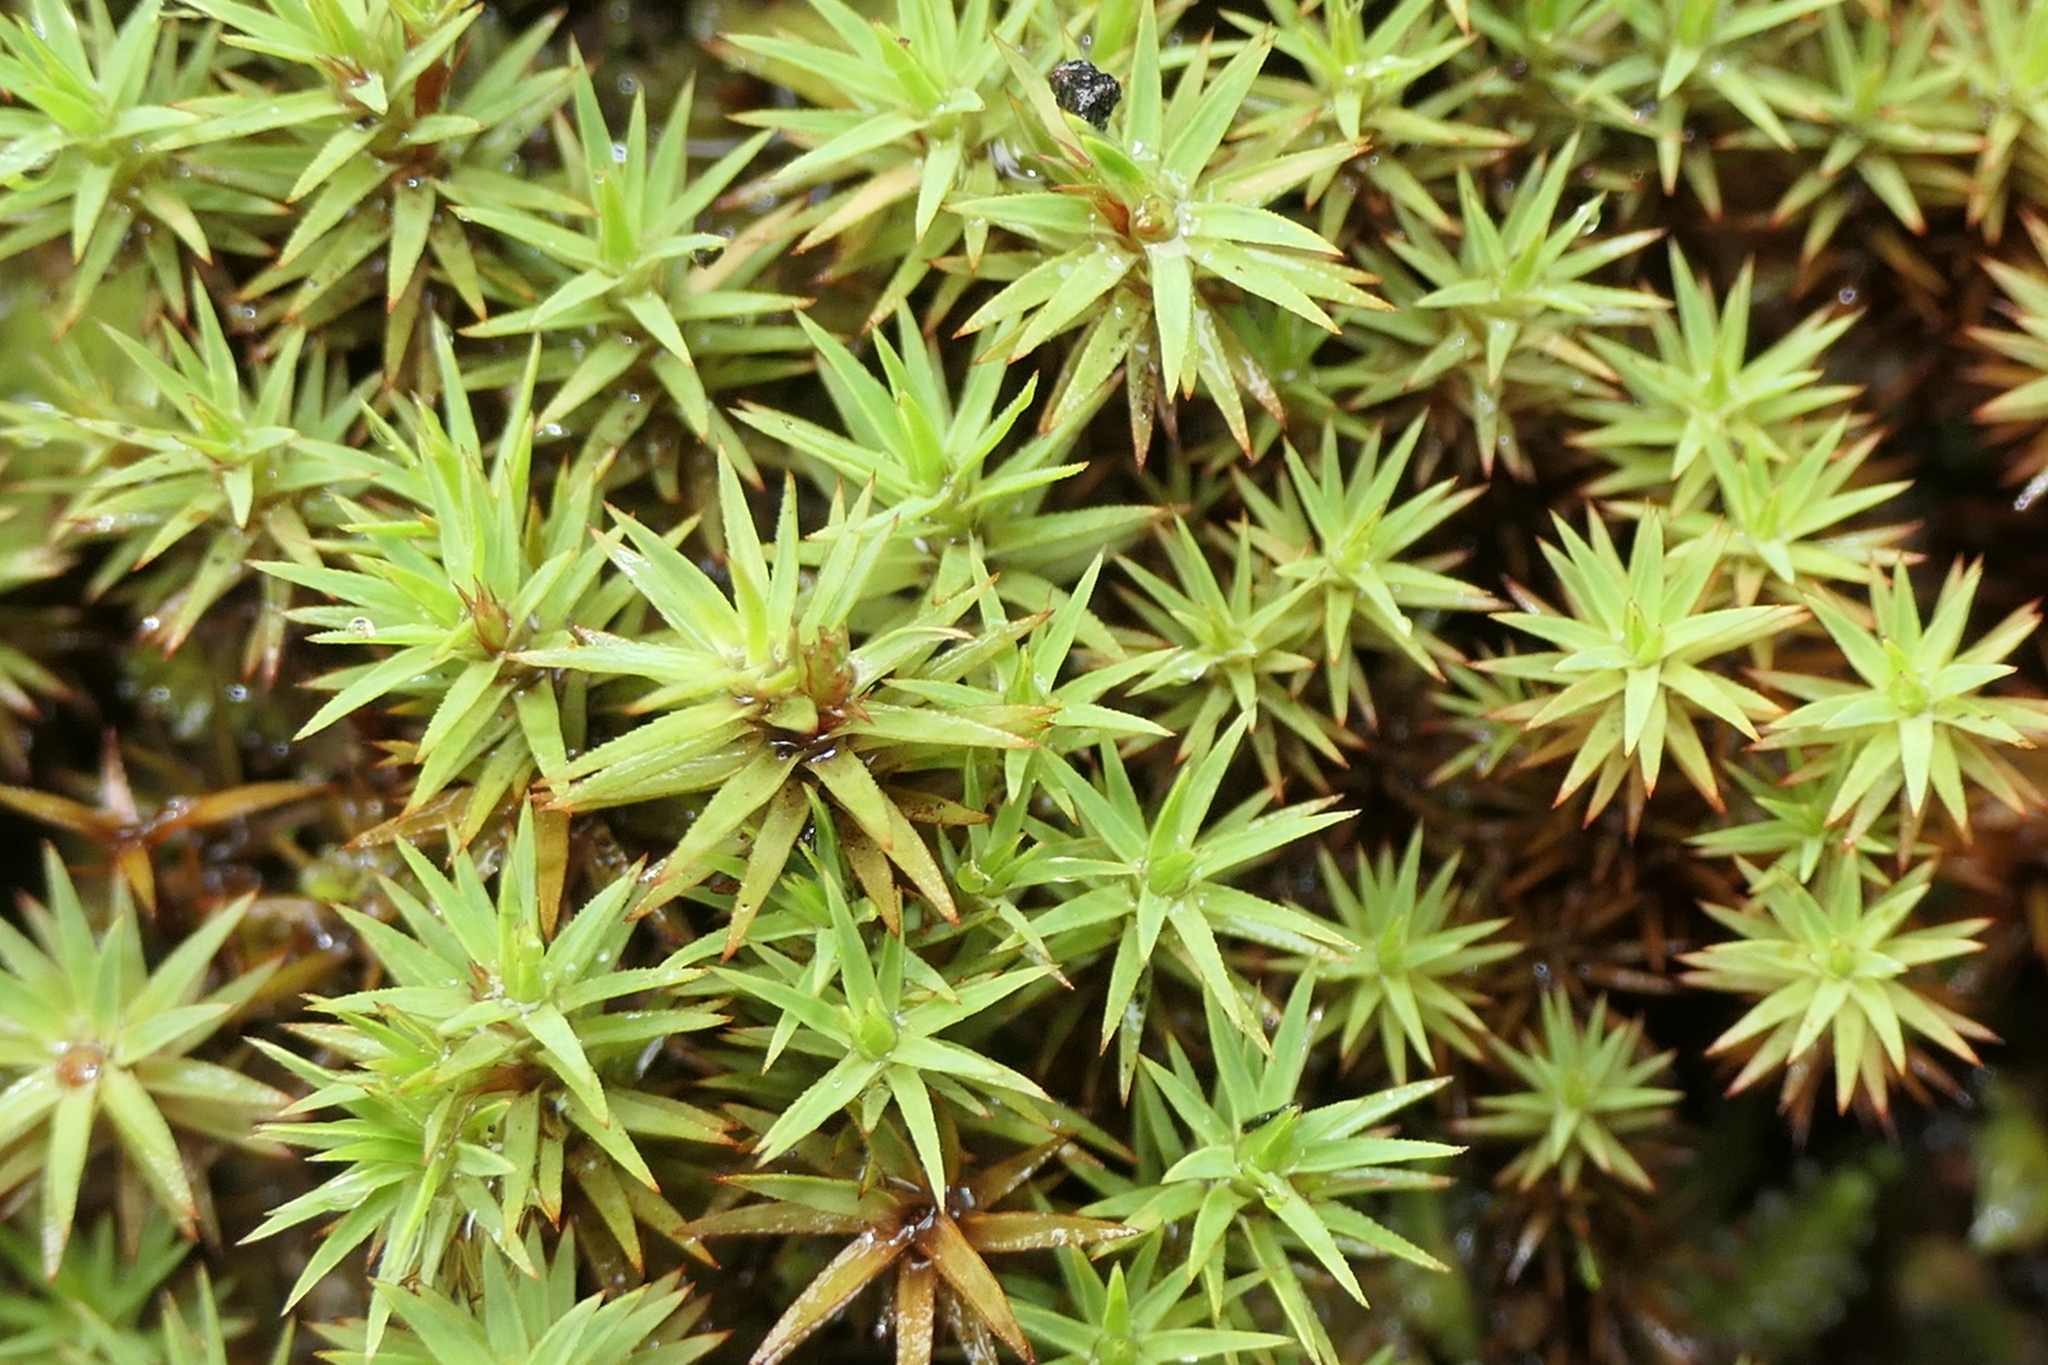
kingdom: Plantae
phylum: Bryophyta
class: Polytrichopsida
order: Polytrichales
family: Polytrichaceae
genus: Pogonatum
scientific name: Pogonatum urnigerum
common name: Urn hair moss
